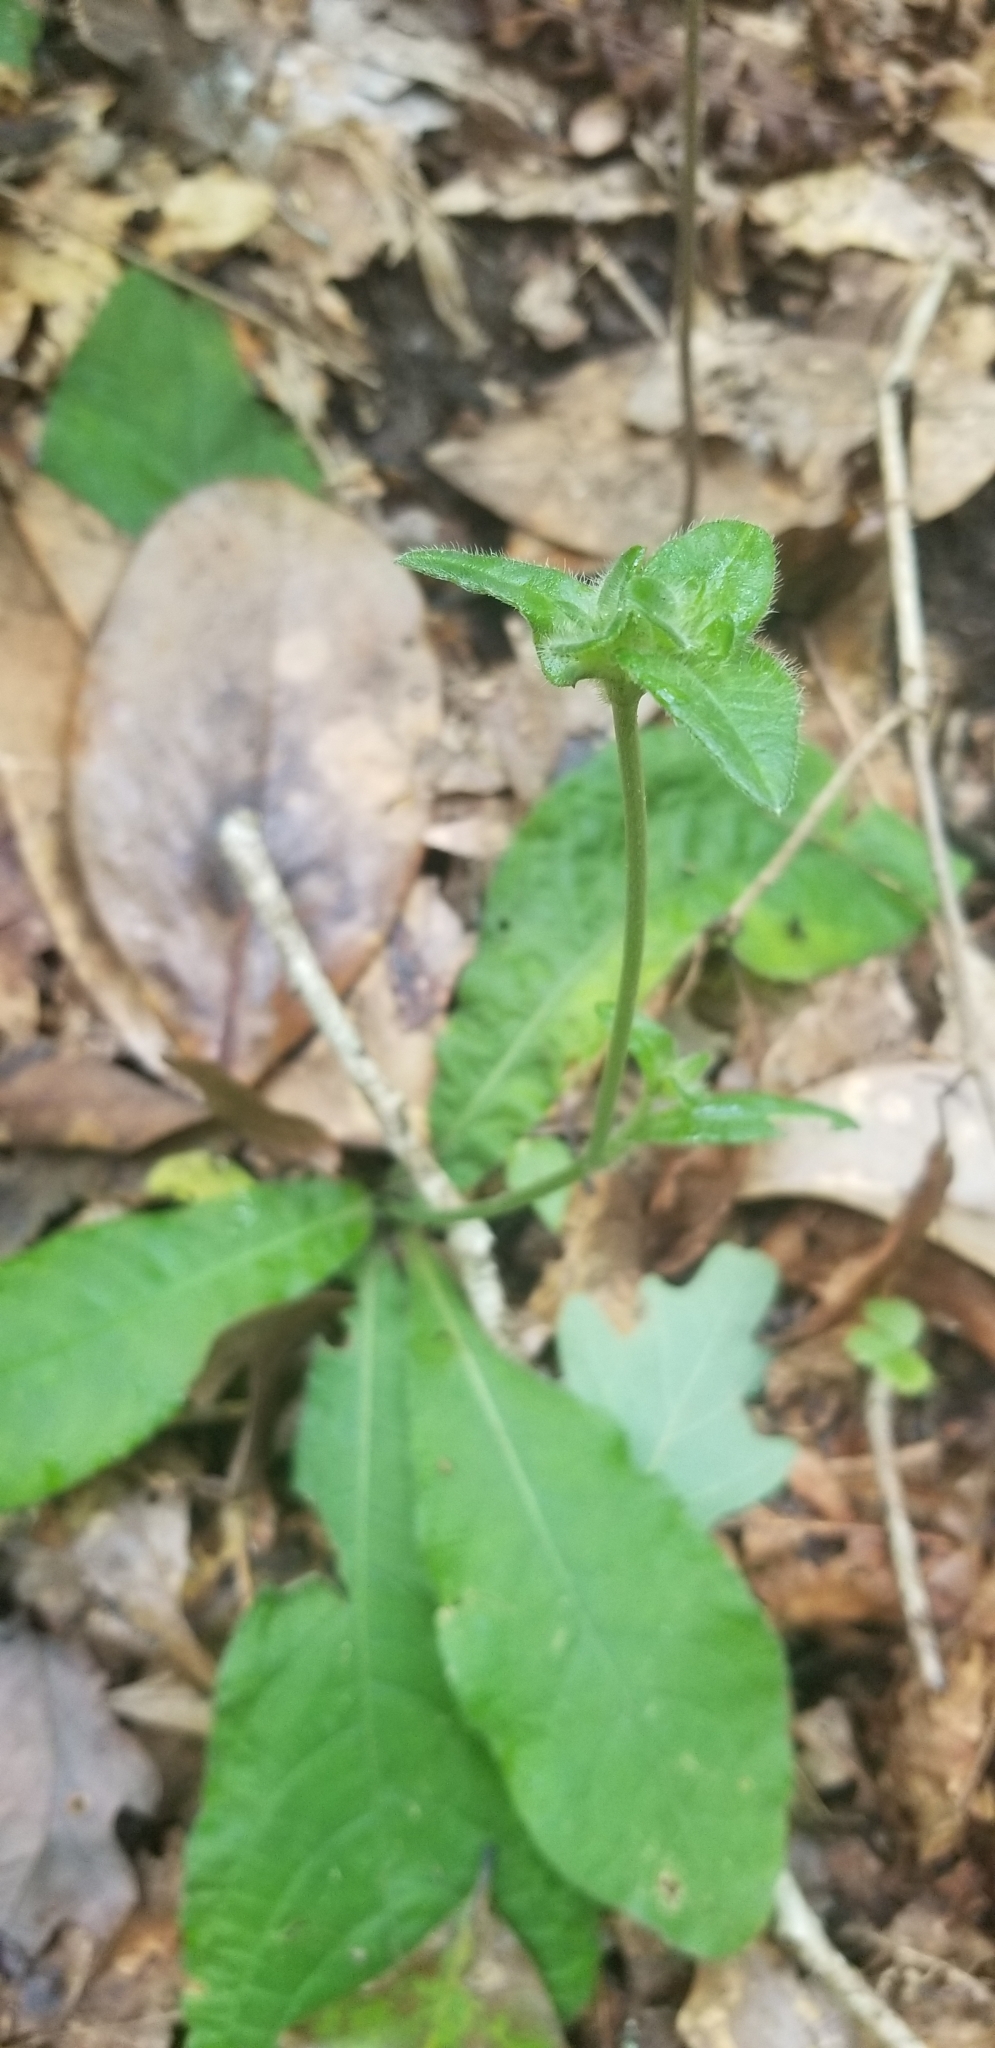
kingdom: Plantae
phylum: Tracheophyta
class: Magnoliopsida
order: Asterales
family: Asteraceae
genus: Elephantopus
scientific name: Elephantopus tomentosus
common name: Tobacco-weed
